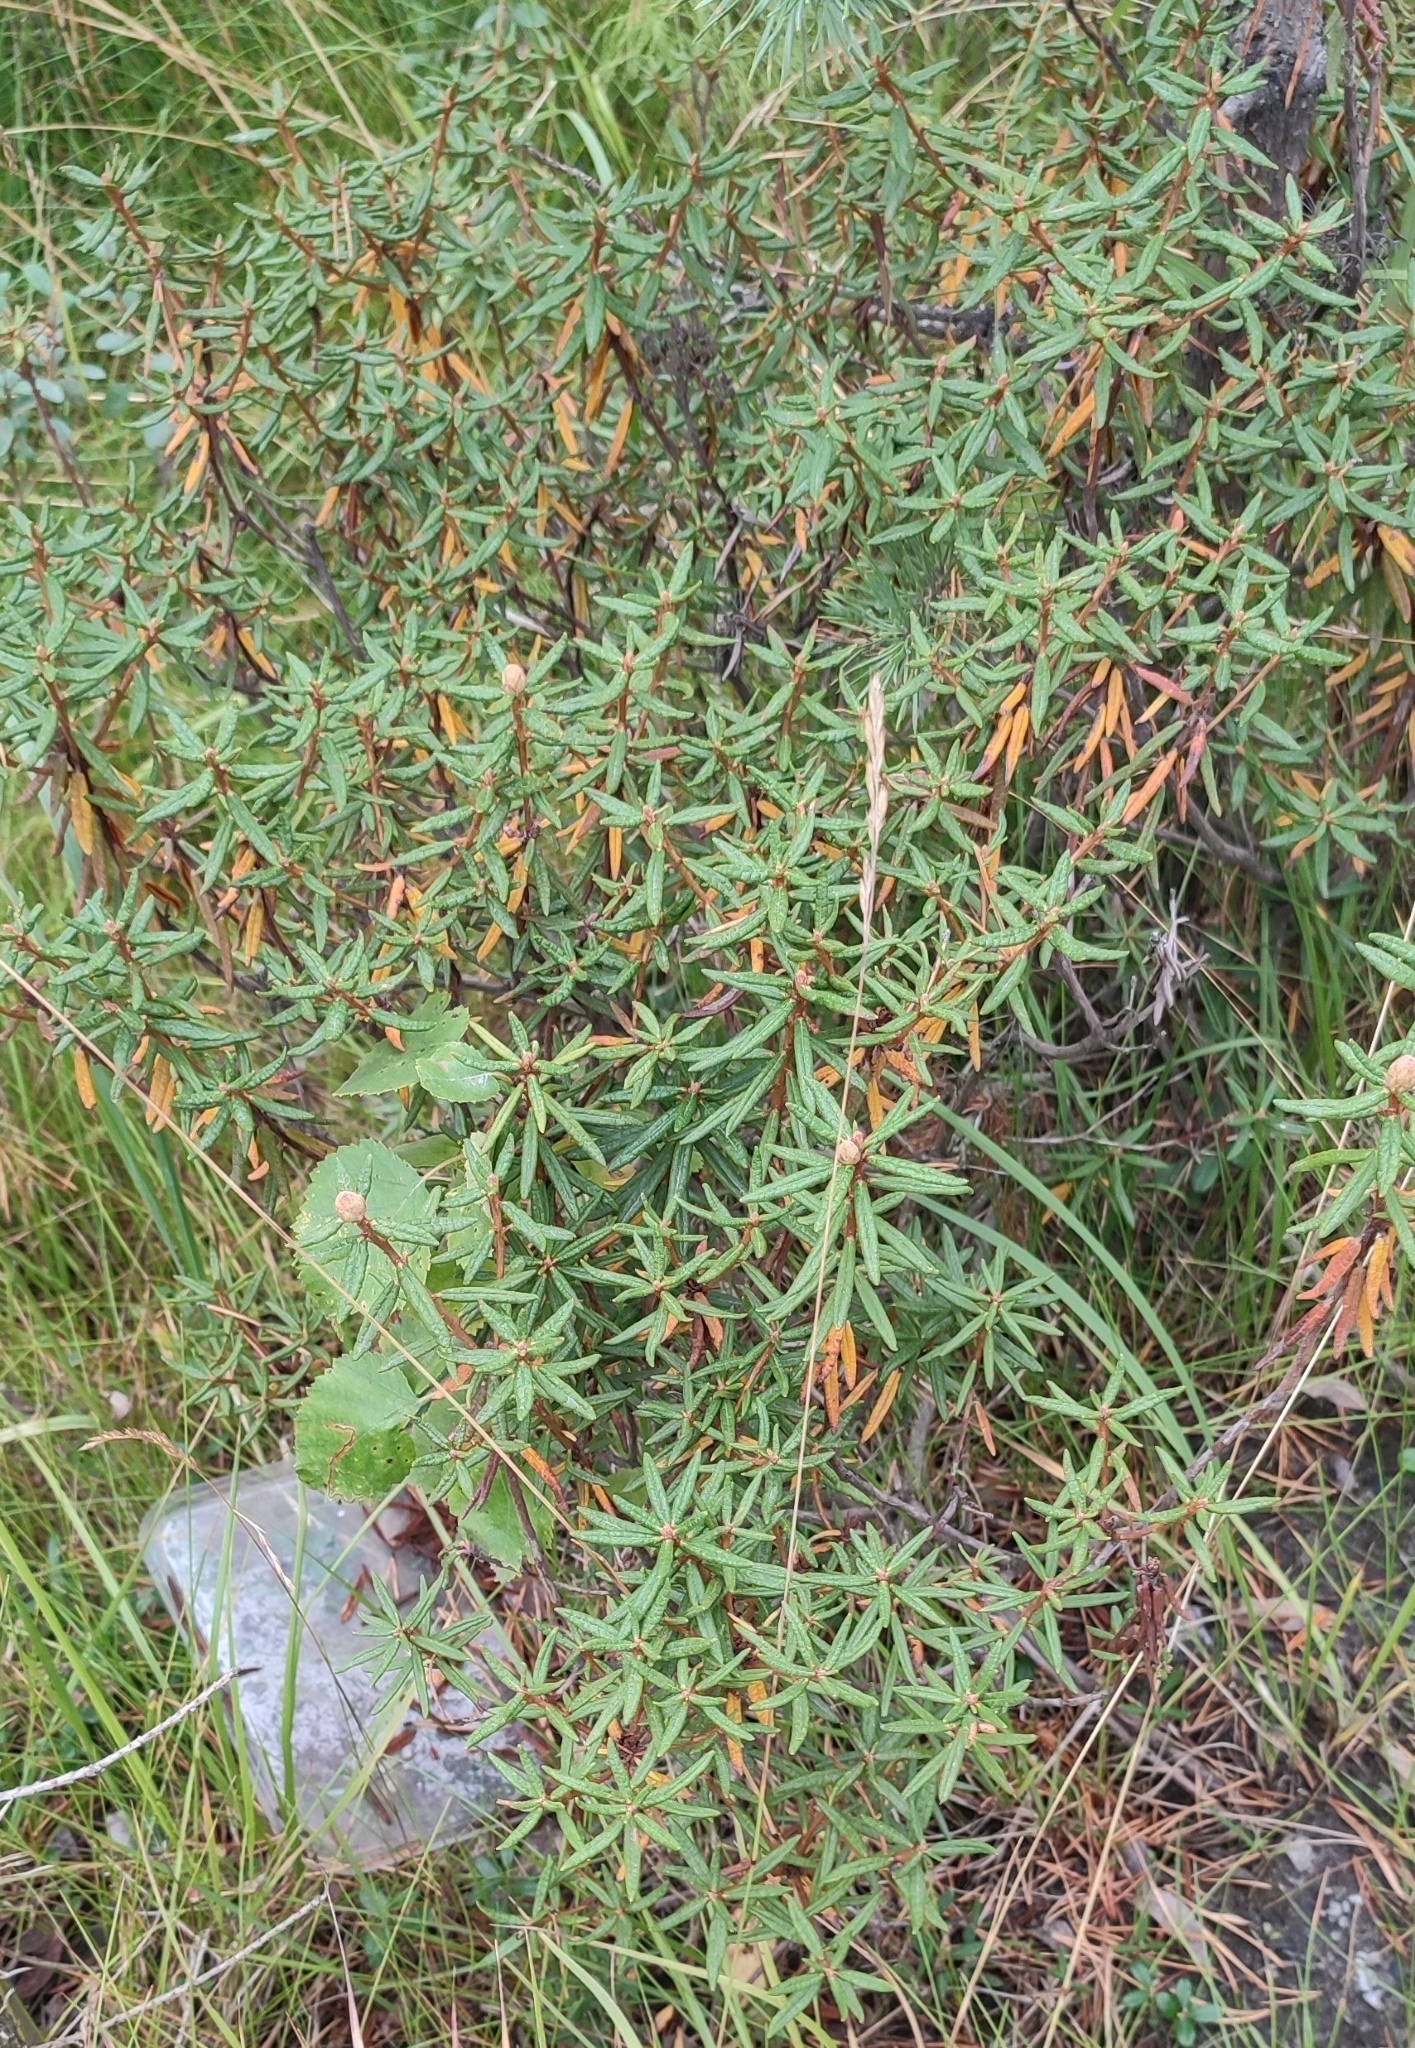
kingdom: Plantae
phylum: Tracheophyta
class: Magnoliopsida
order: Ericales
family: Ericaceae
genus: Rhododendron
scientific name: Rhododendron tomentosum
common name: Marsh labrador tea
